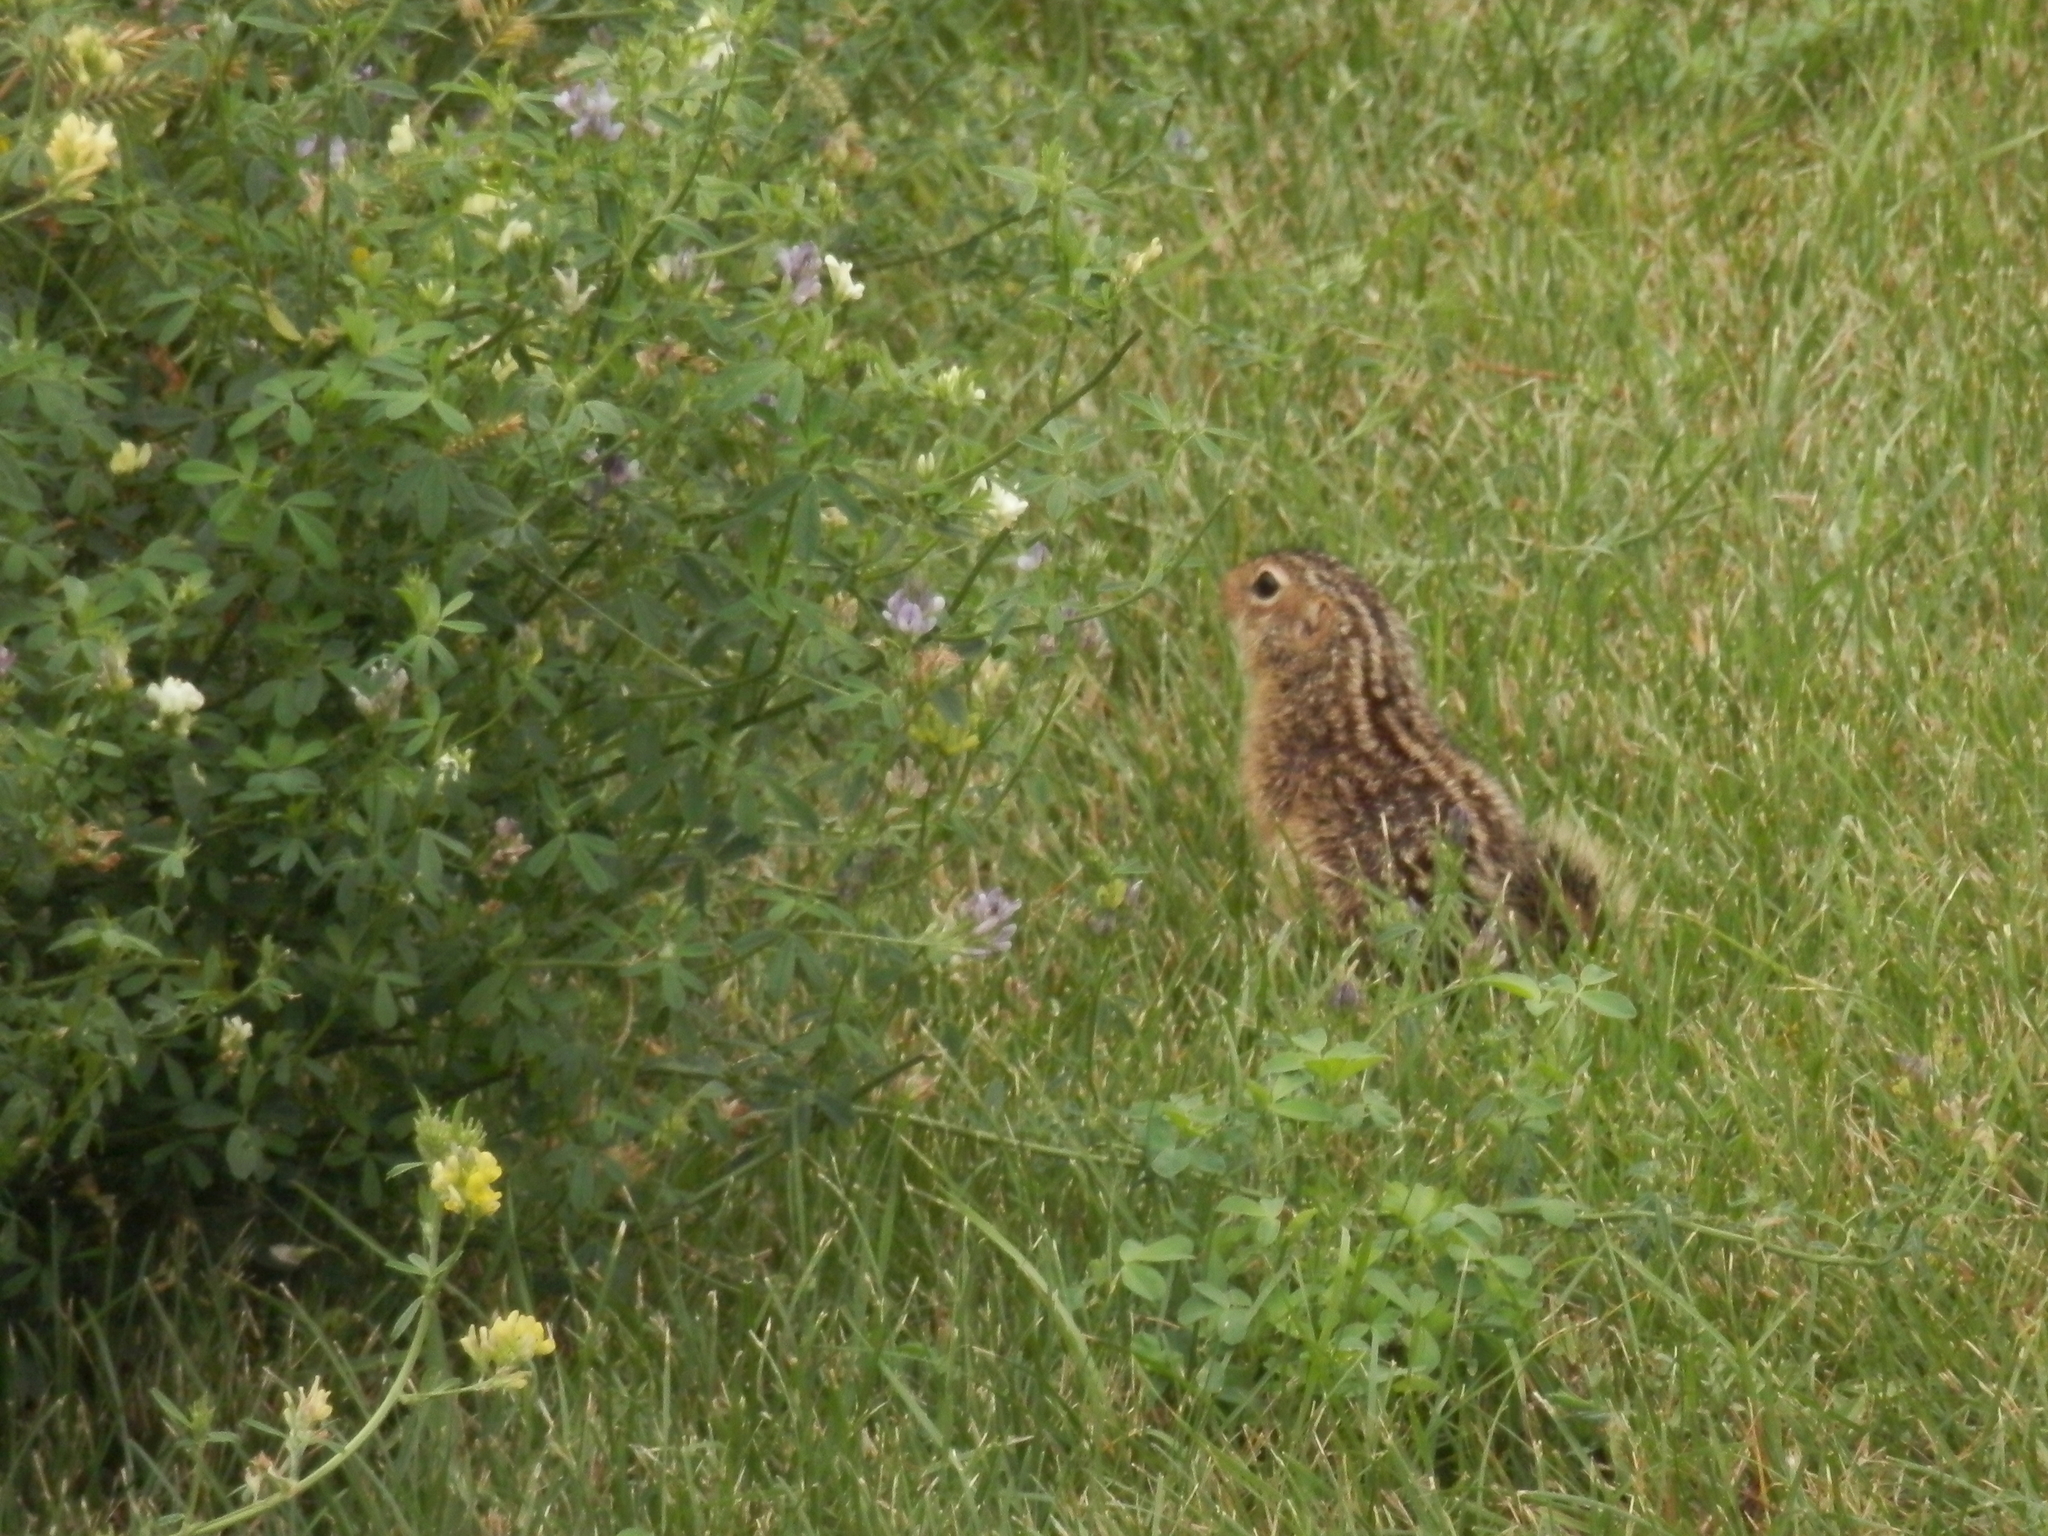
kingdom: Animalia
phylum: Chordata
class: Mammalia
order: Rodentia
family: Sciuridae
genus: Ictidomys
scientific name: Ictidomys tridecemlineatus
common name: Thirteen-lined ground squirrel
